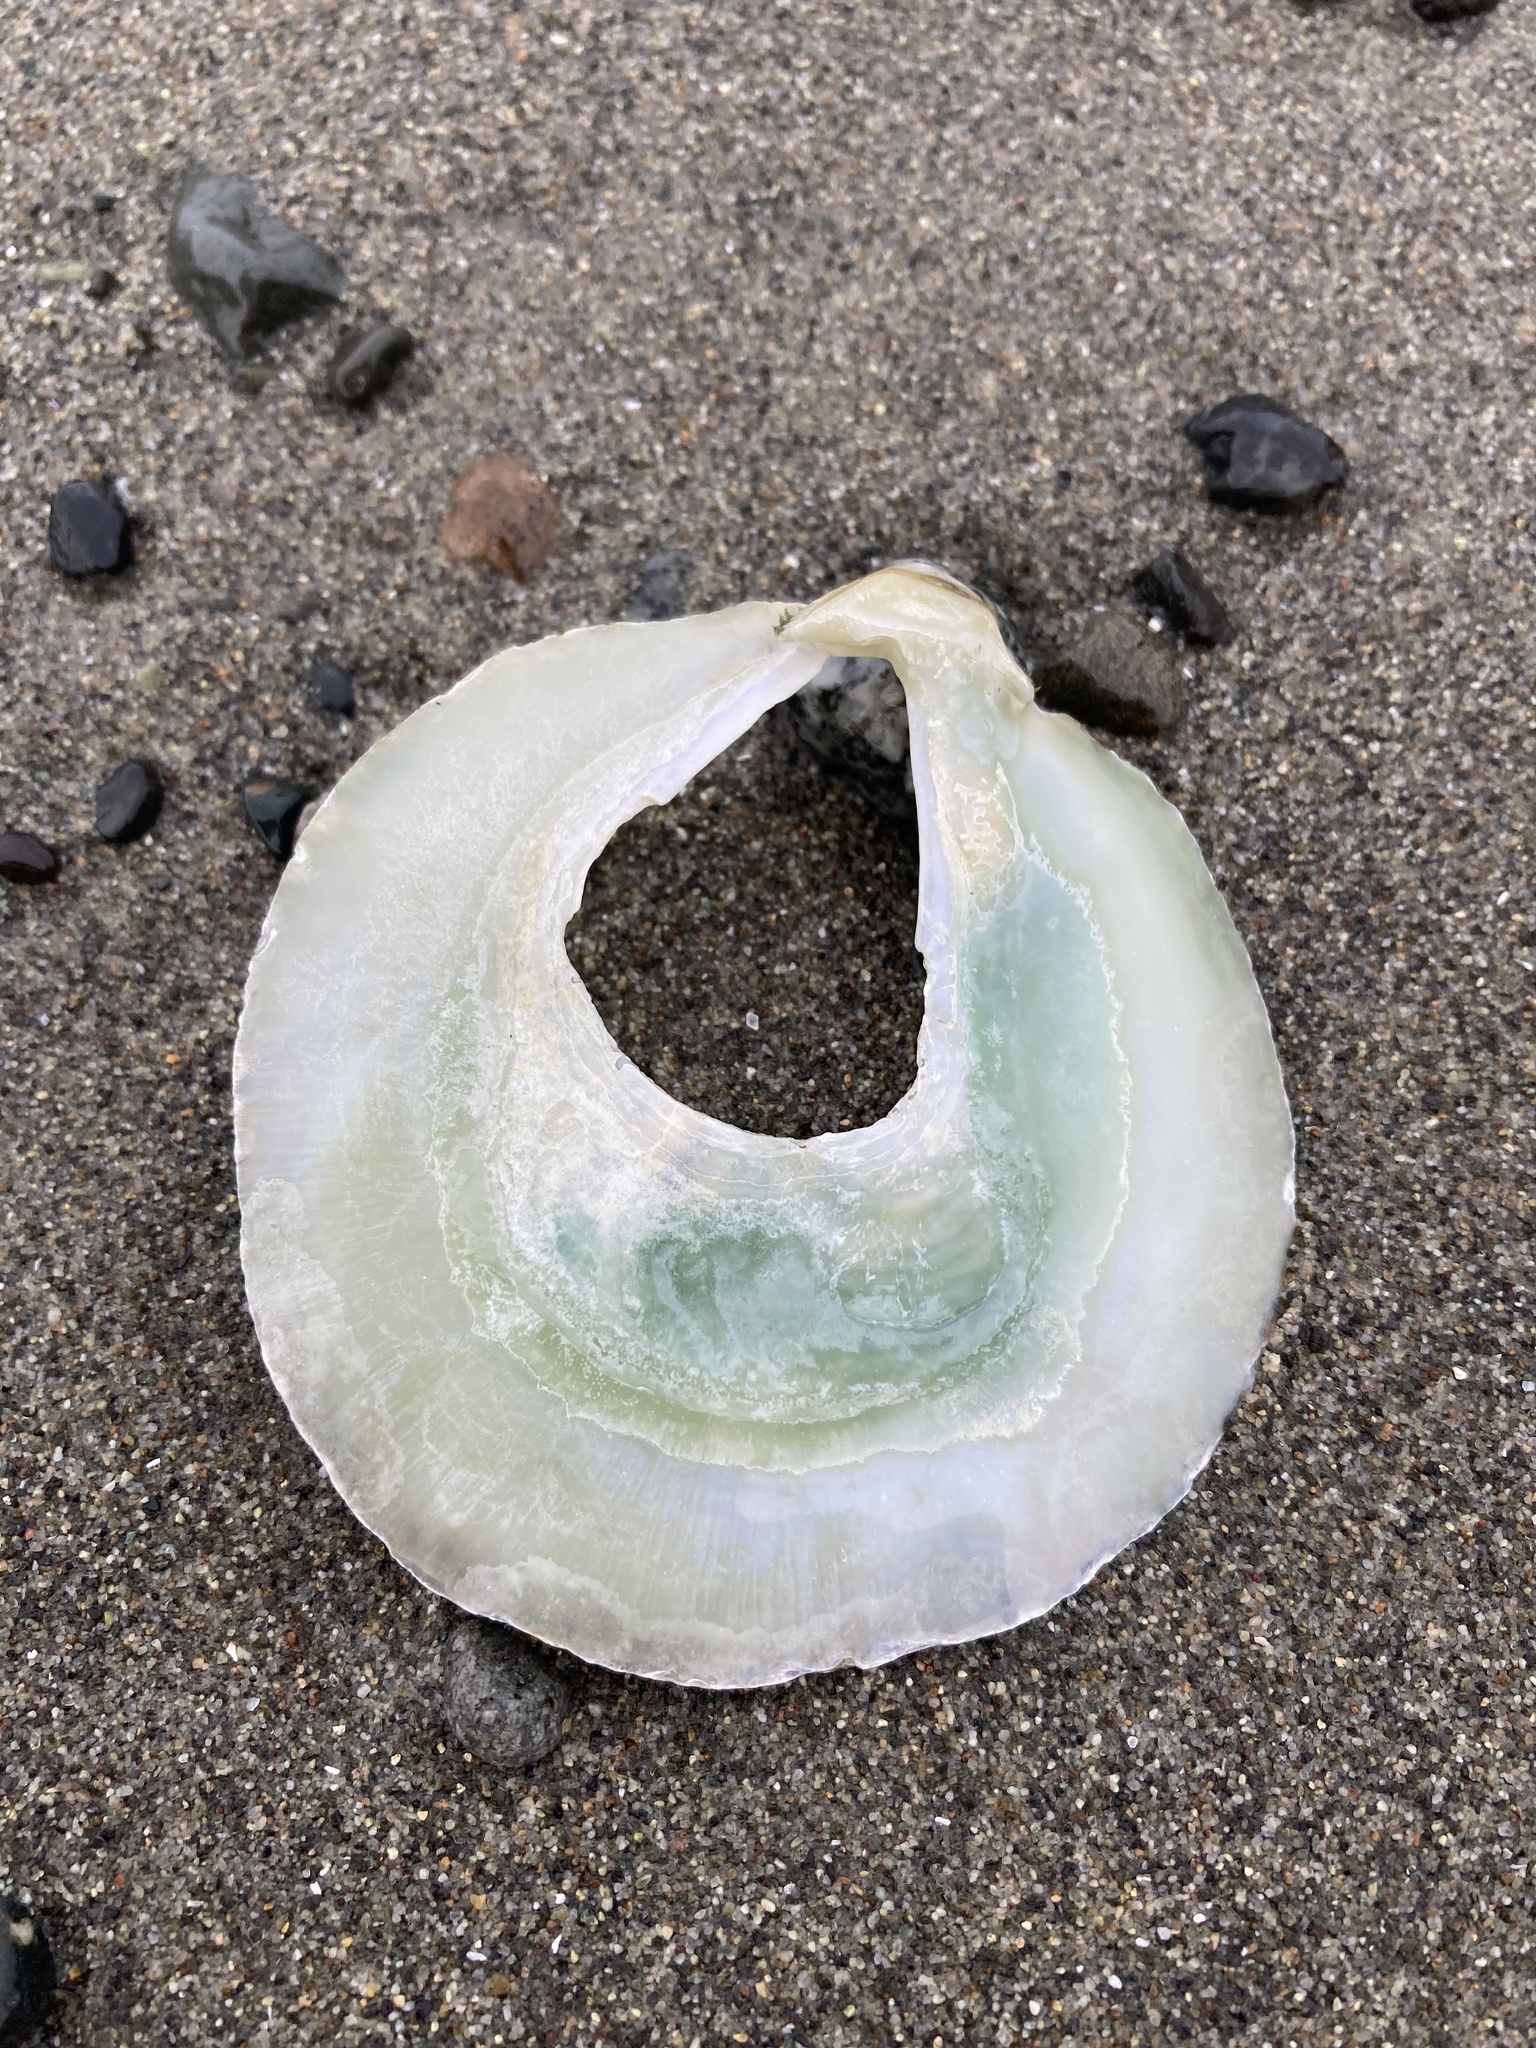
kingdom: Animalia
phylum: Mollusca
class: Bivalvia
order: Pectinida
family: Anomiidae
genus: Pododesmus
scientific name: Pododesmus macrochisma
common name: Alaska jingle
